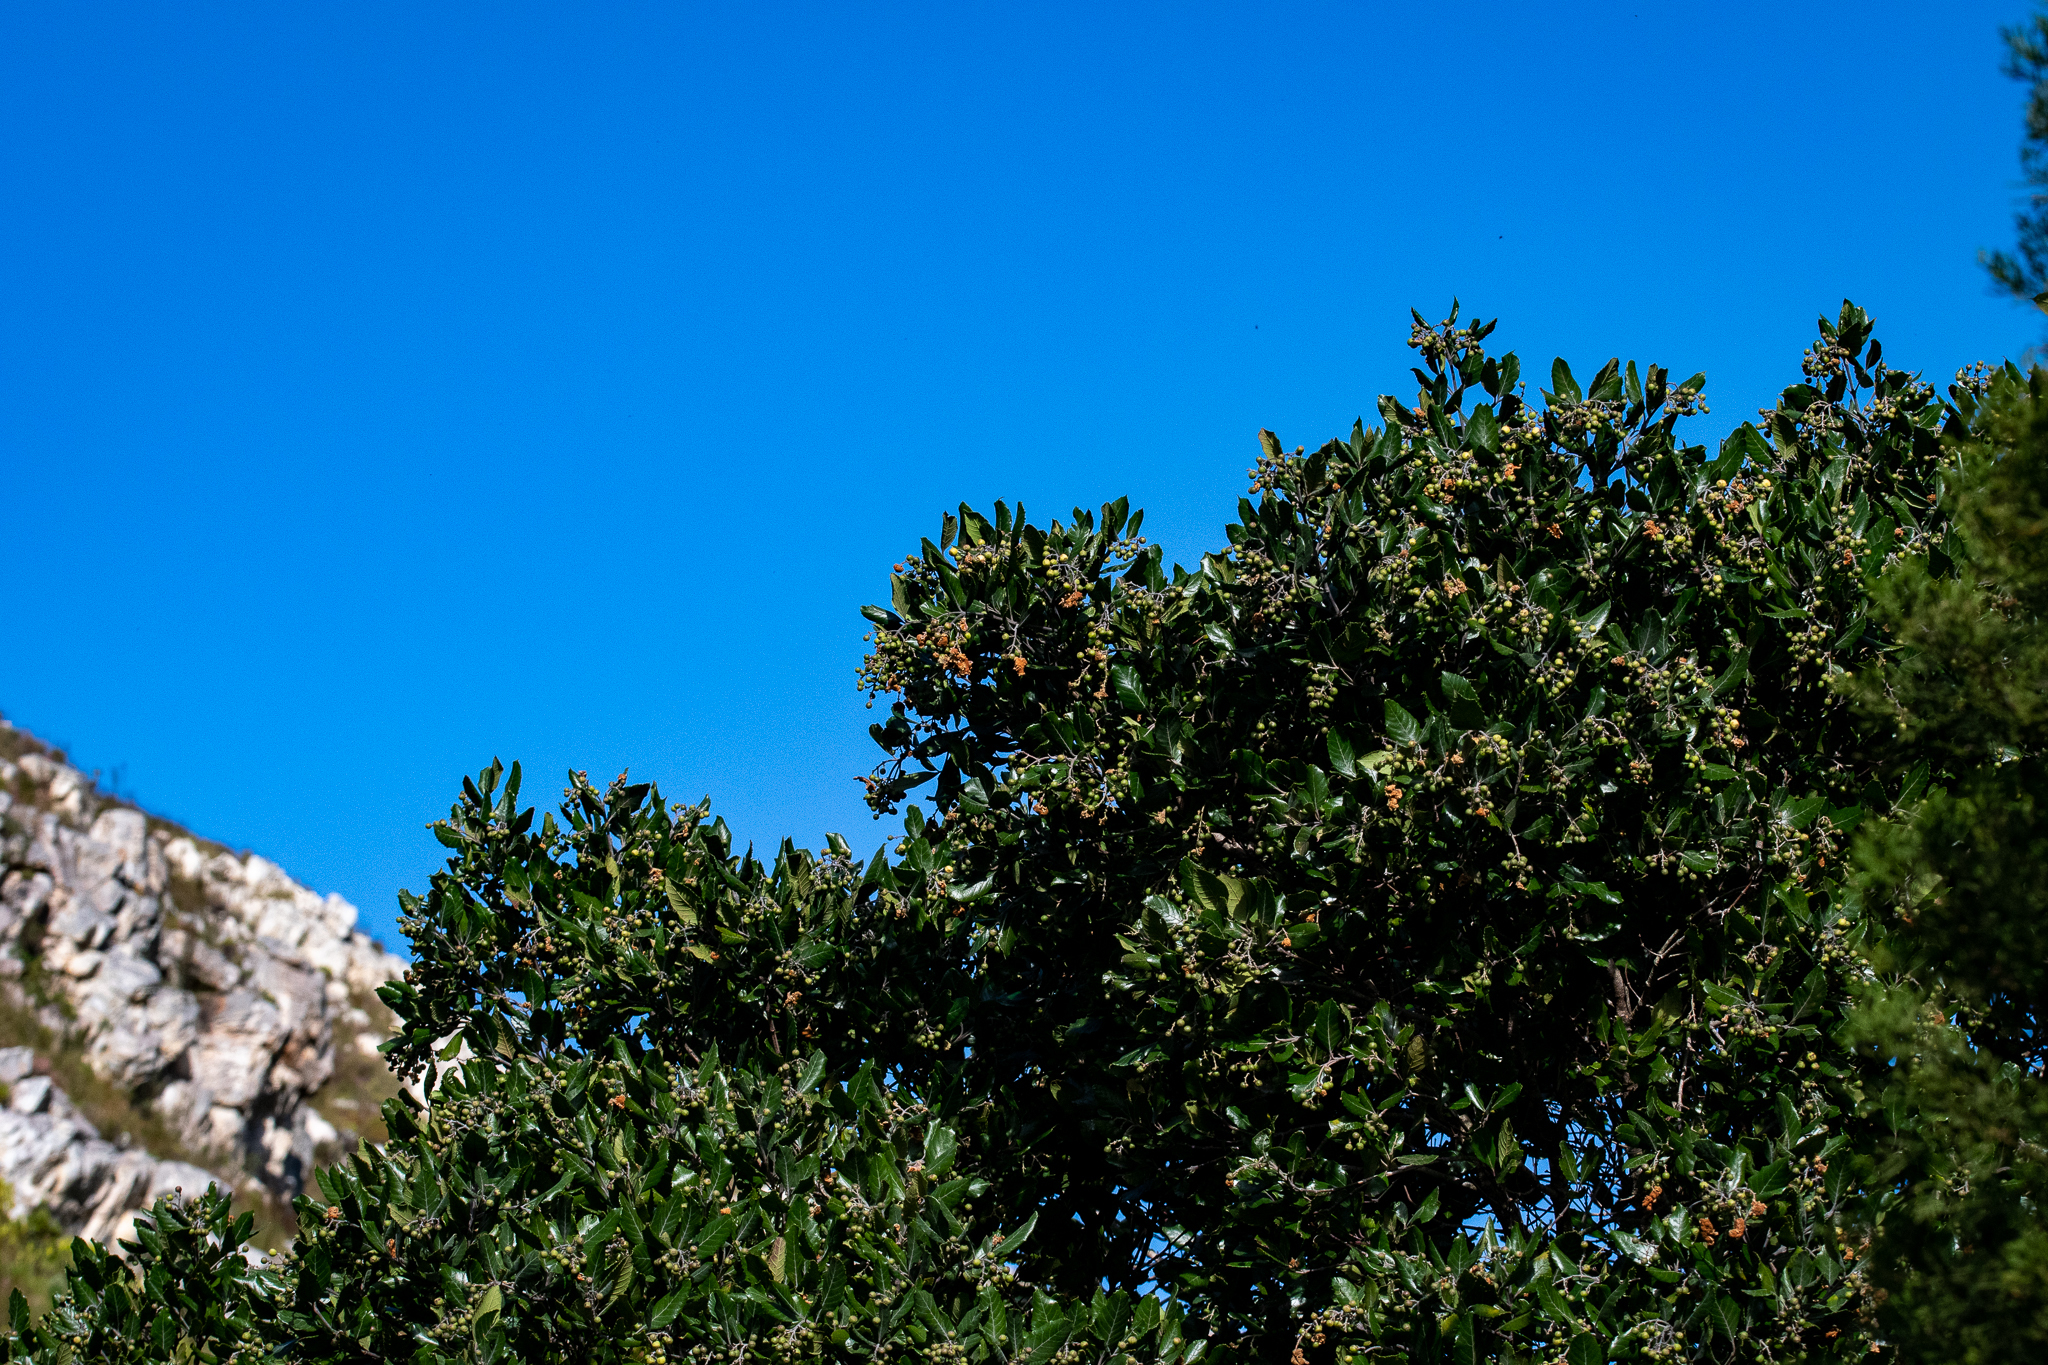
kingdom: Plantae
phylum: Tracheophyta
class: Magnoliopsida
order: Cornales
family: Curtisiaceae
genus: Curtisia
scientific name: Curtisia dentata
